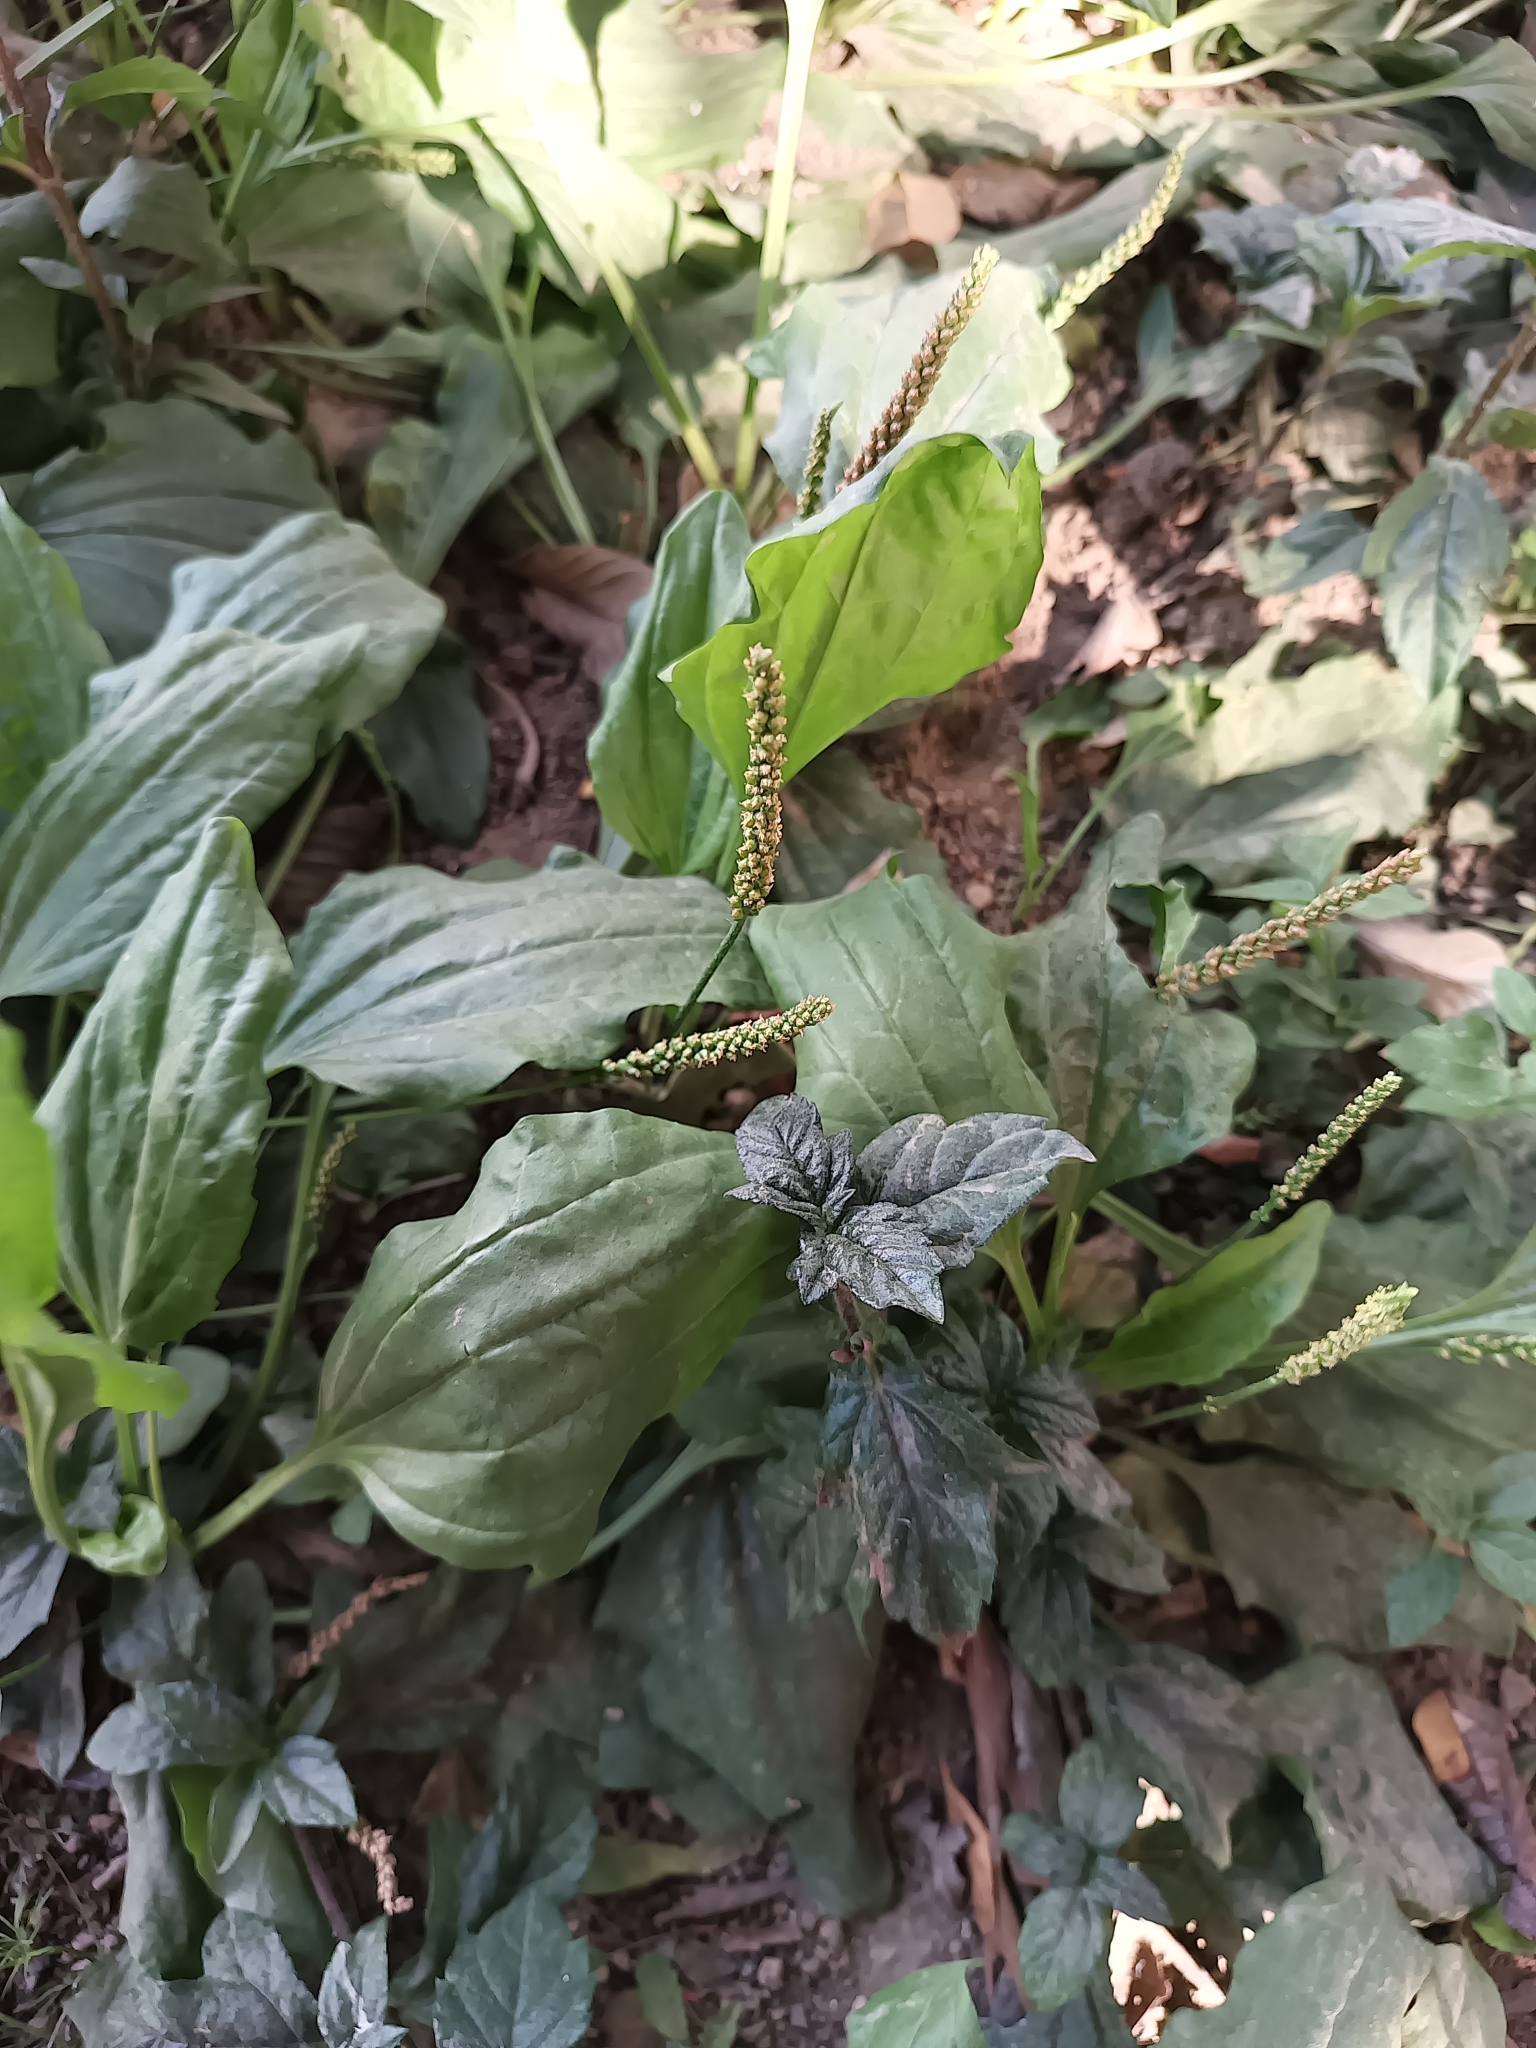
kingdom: Plantae
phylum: Tracheophyta
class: Magnoliopsida
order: Lamiales
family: Plantaginaceae
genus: Plantago
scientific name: Plantago major
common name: Common plantain
